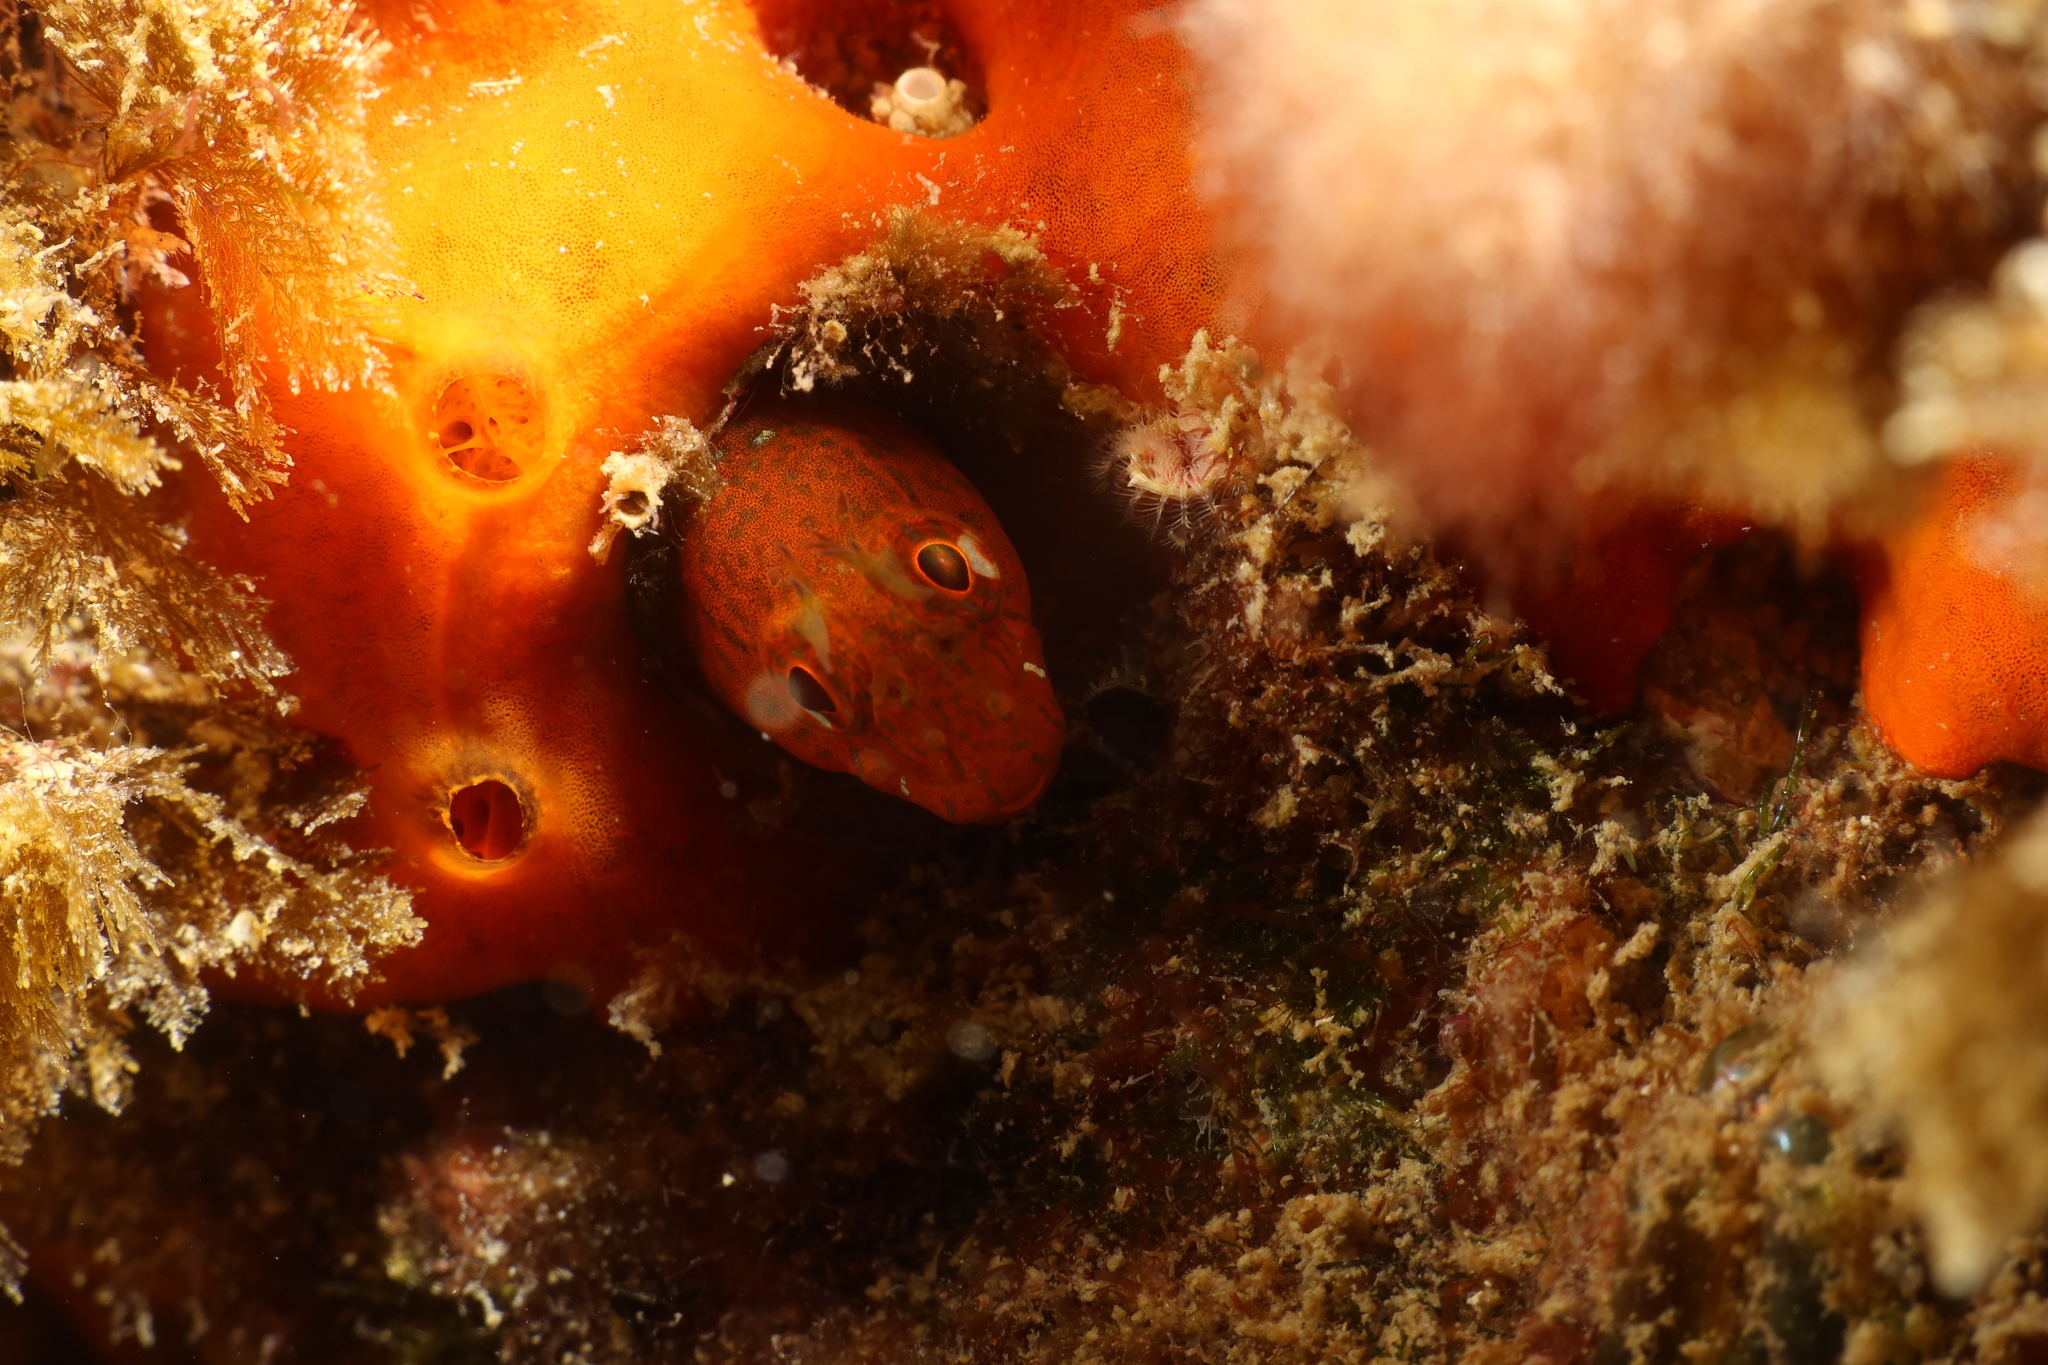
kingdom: Animalia
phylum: Chordata
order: Perciformes
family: Blenniidae
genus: Parablennius
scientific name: Parablennius zvonimiri
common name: Red blenny
